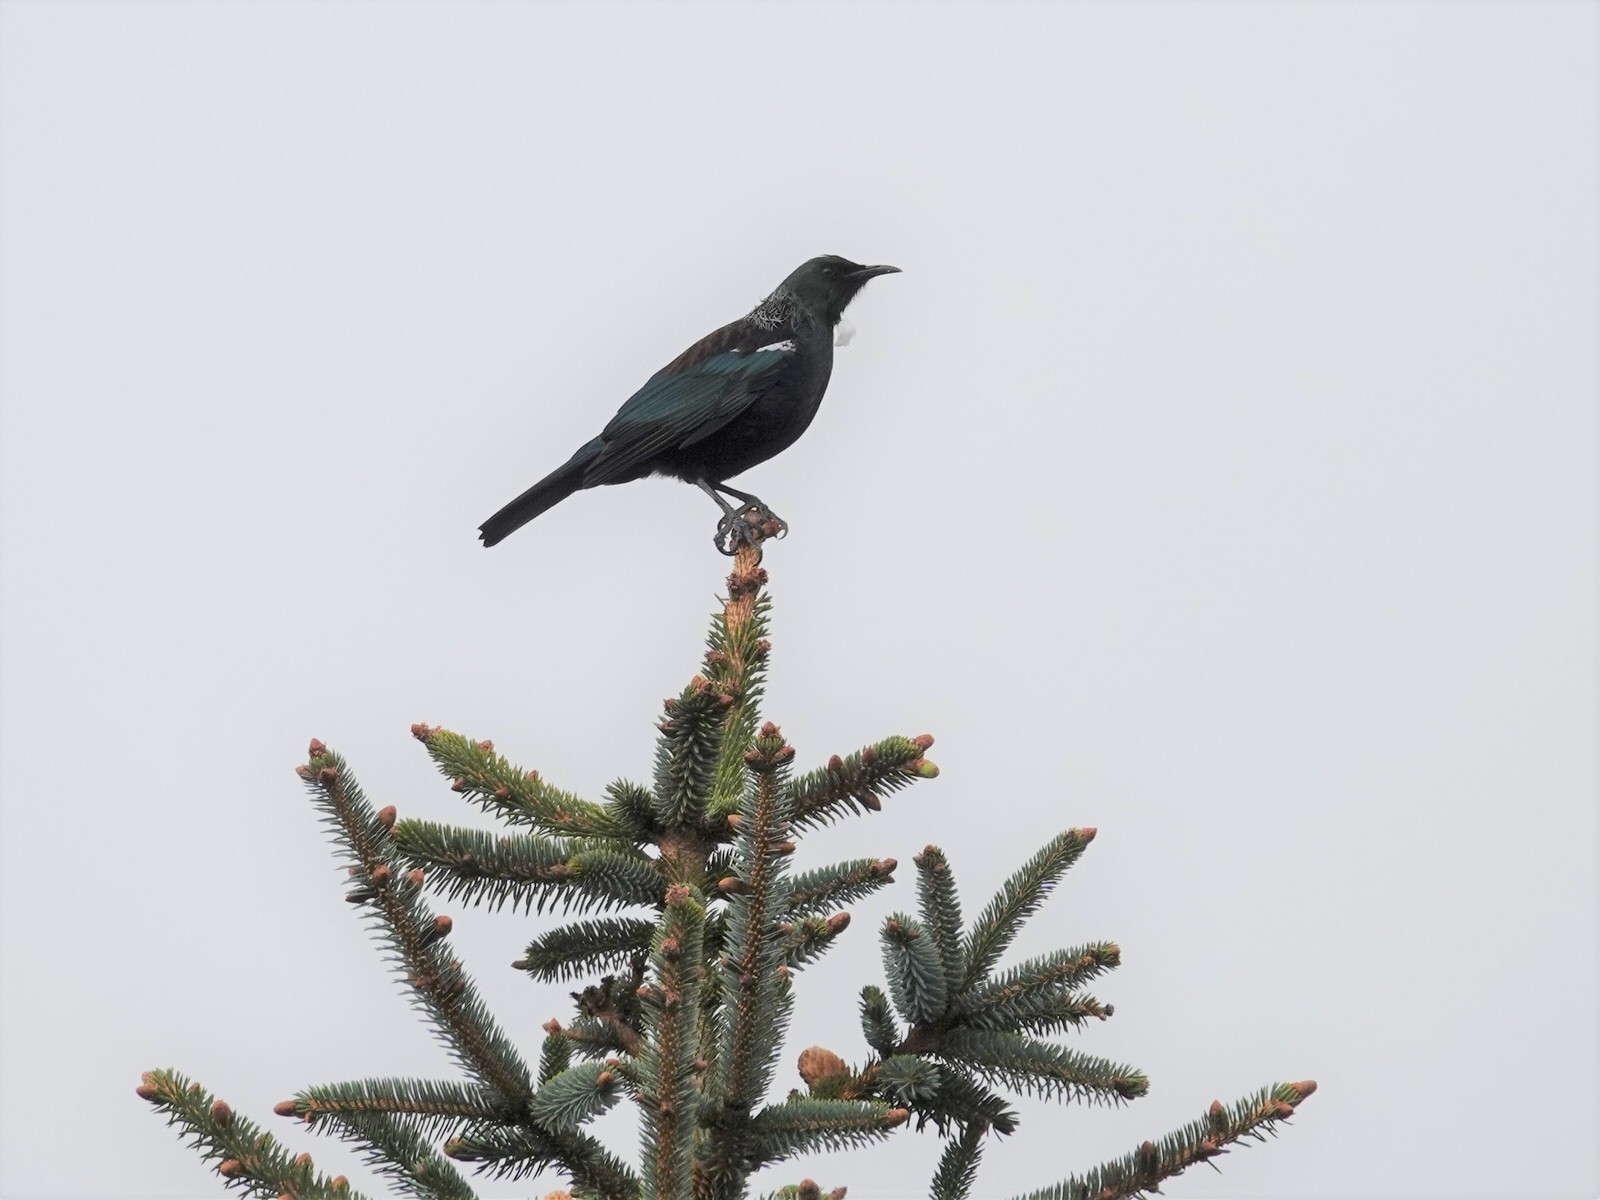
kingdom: Animalia
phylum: Chordata
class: Aves
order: Passeriformes
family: Meliphagidae
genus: Prosthemadera
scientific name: Prosthemadera novaeseelandiae
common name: Tui
